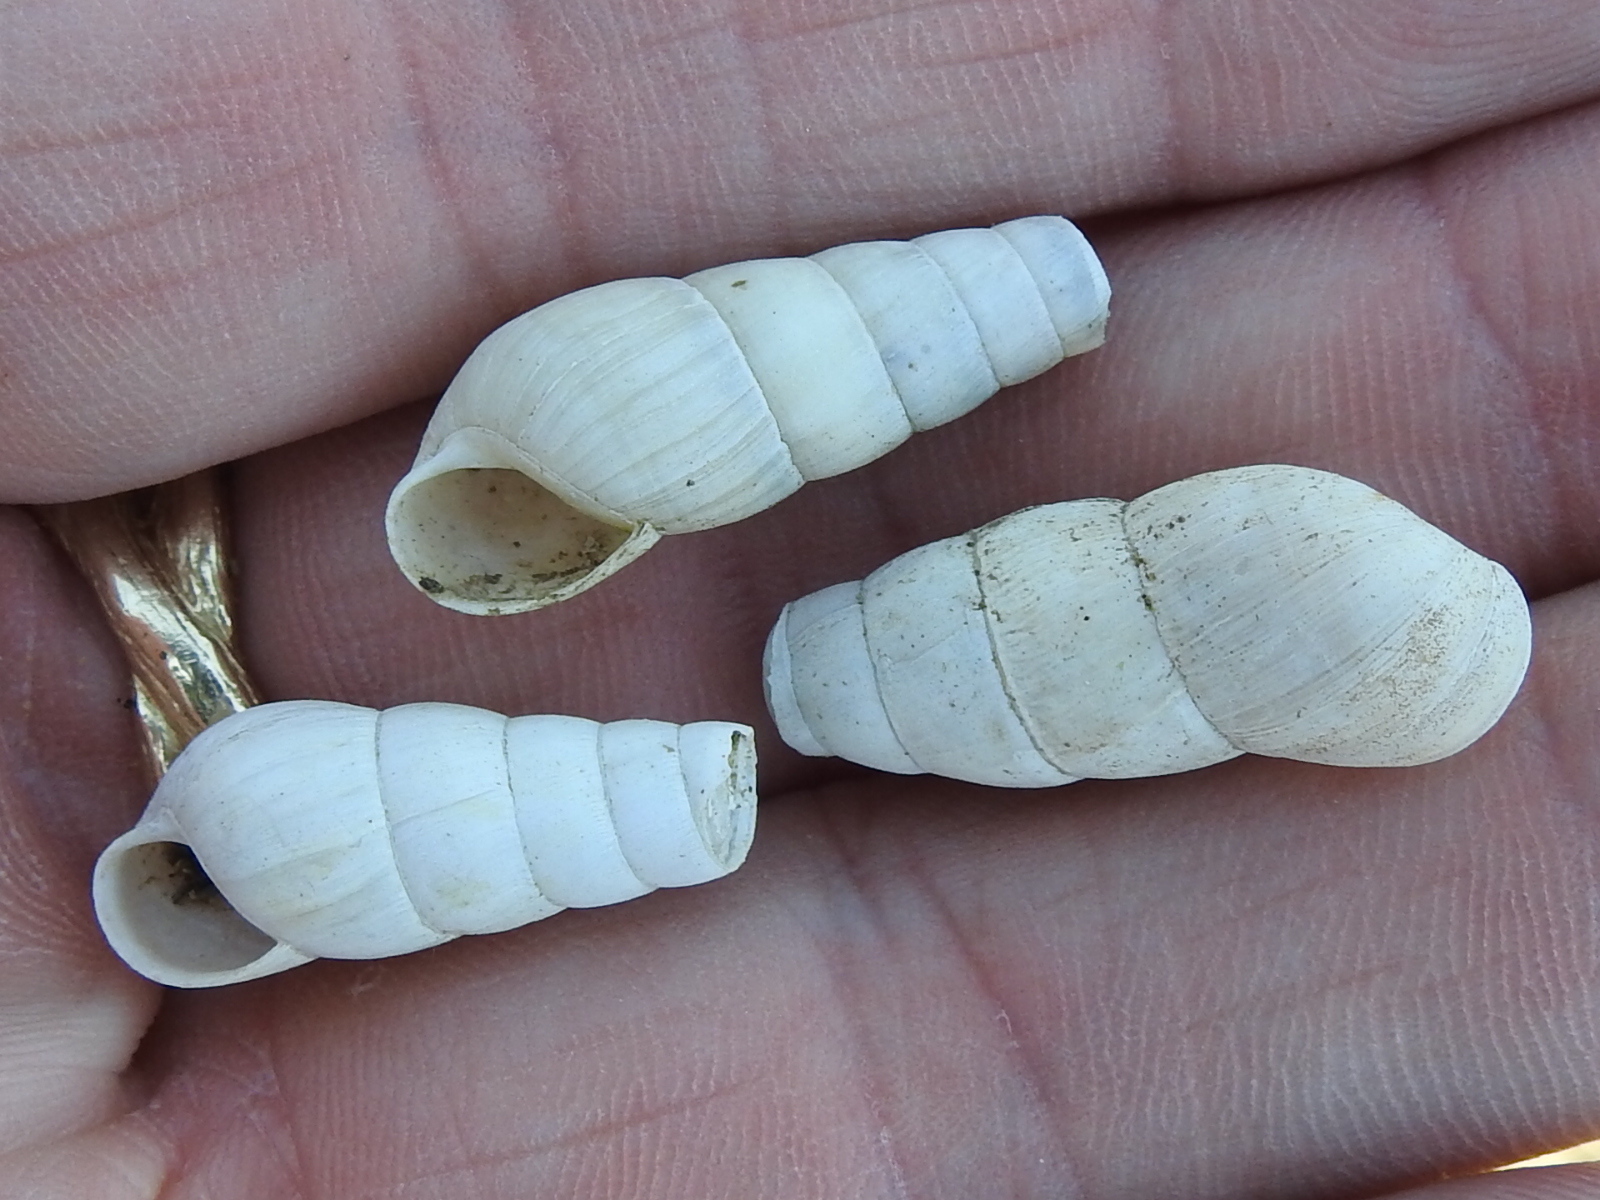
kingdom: Animalia
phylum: Mollusca
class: Gastropoda
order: Stylommatophora
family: Achatinidae
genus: Rumina
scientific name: Rumina decollata
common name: Decollate snail
